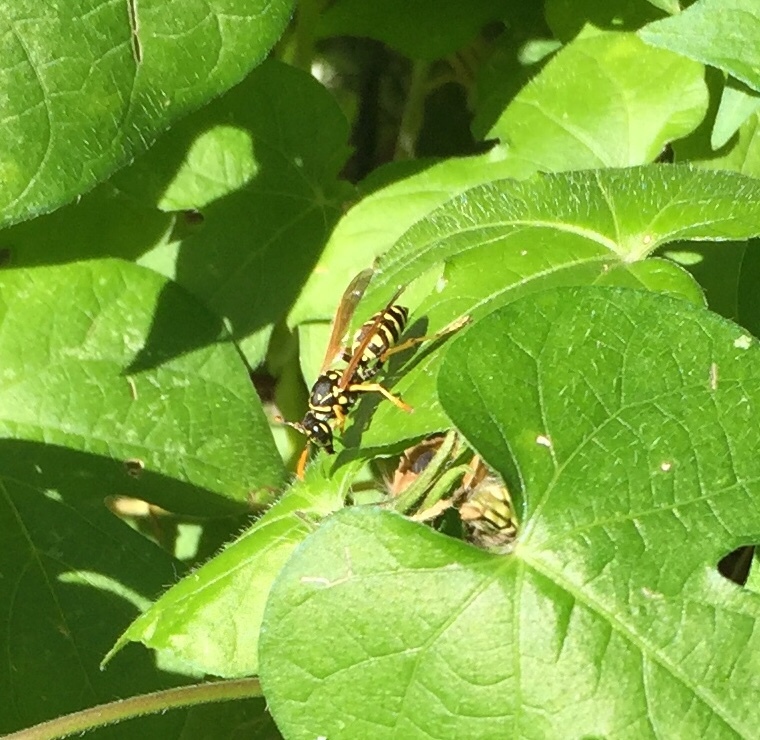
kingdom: Animalia
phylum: Arthropoda
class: Insecta
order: Hymenoptera
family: Eumenidae
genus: Polistes
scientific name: Polistes dominula
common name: Paper wasp
